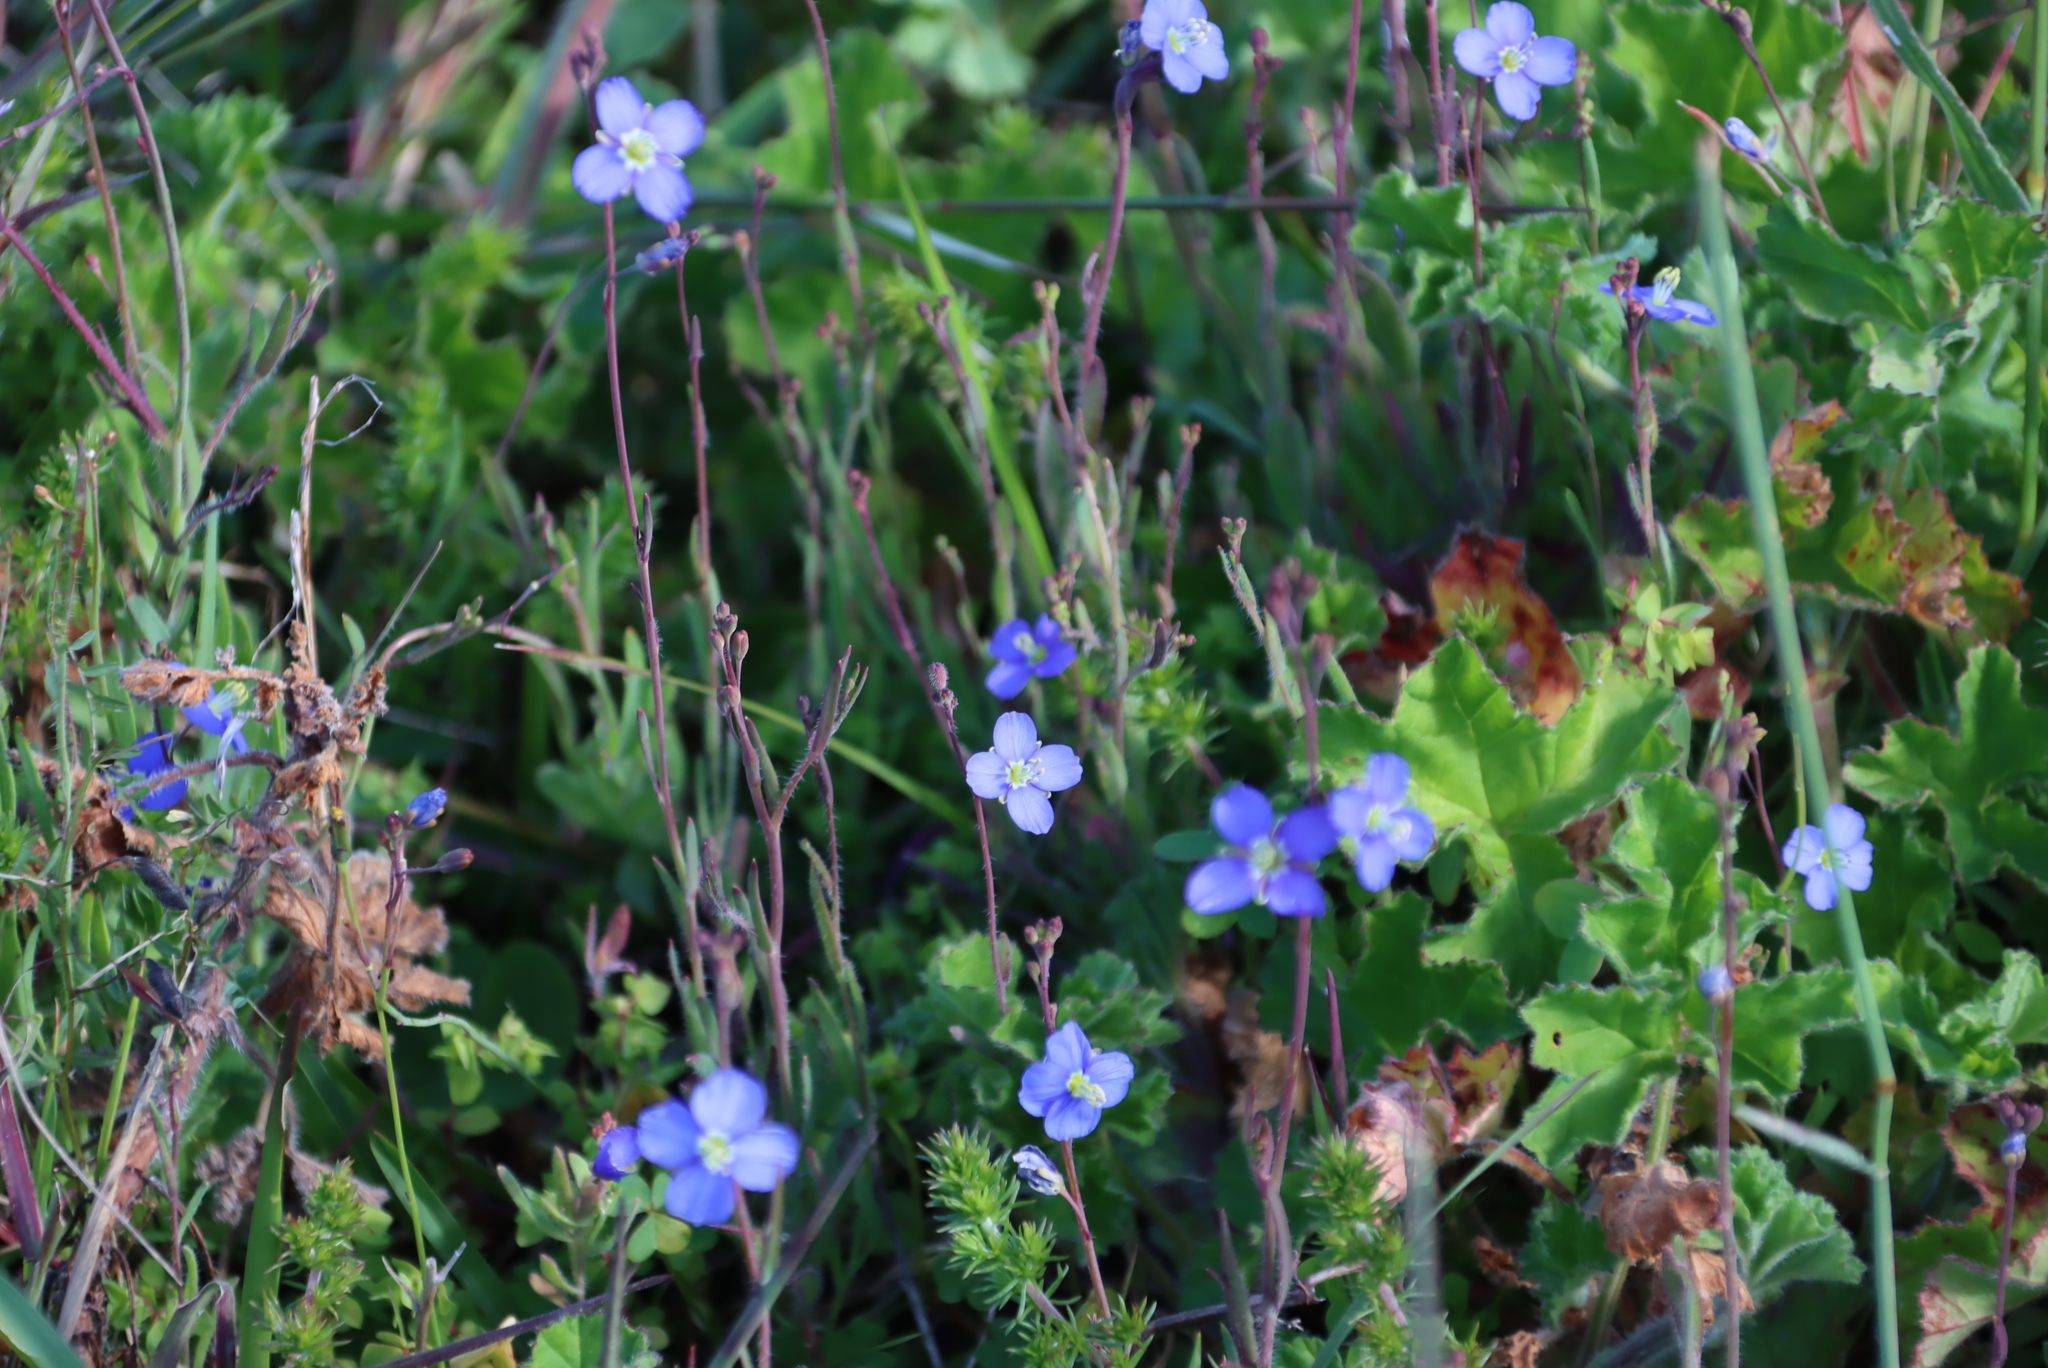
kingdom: Plantae
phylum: Tracheophyta
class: Magnoliopsida
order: Brassicales
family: Brassicaceae
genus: Heliophila
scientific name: Heliophila africana
